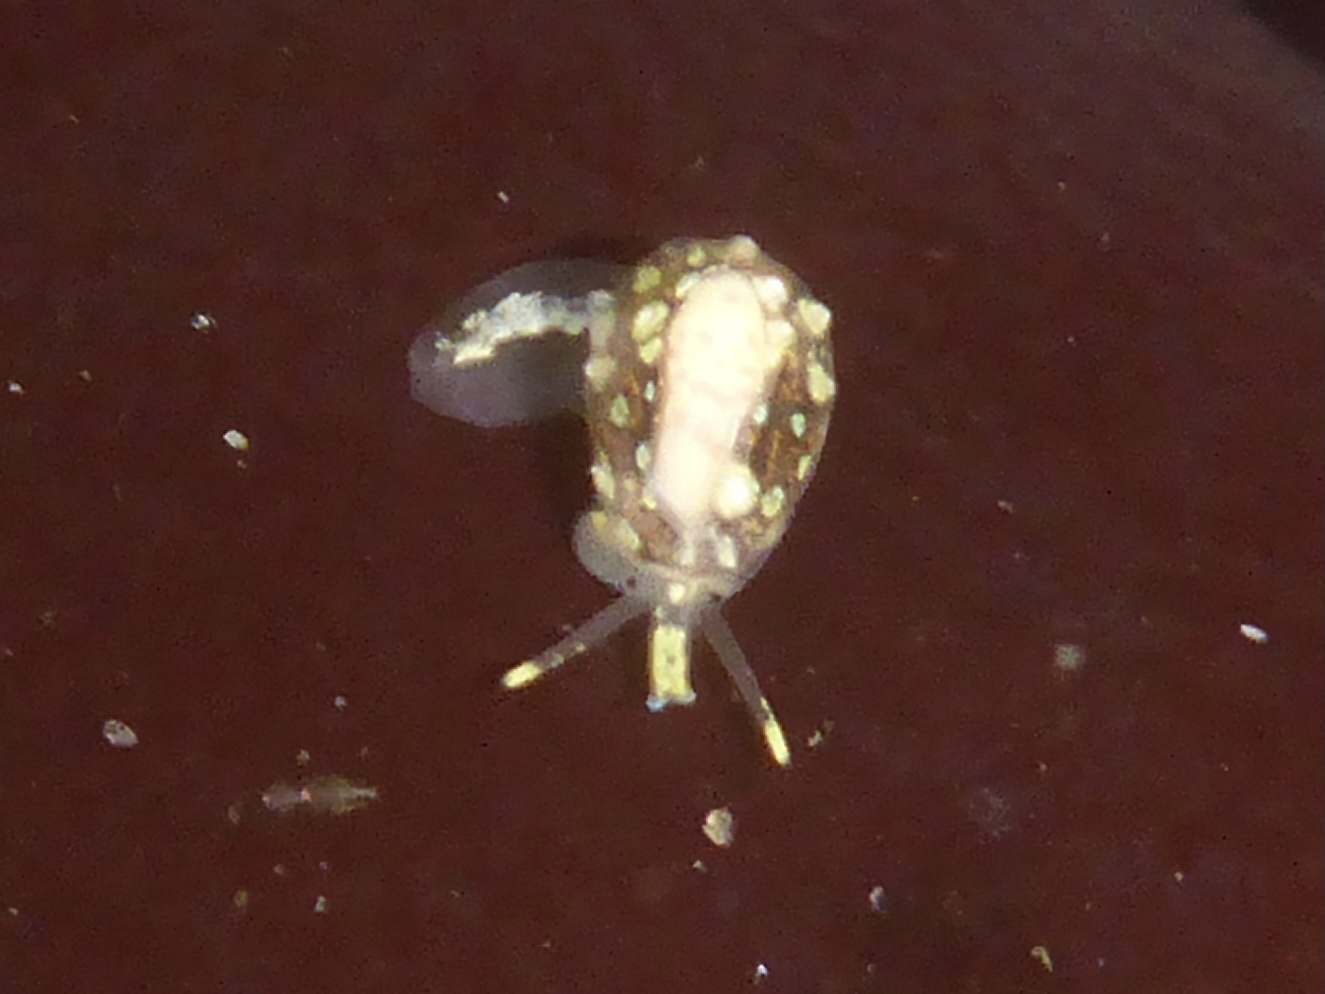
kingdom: Animalia
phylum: Mollusca
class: Gastropoda
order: Neogastropoda
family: Granulinidae
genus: Granulina
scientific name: Granulina margaritula
